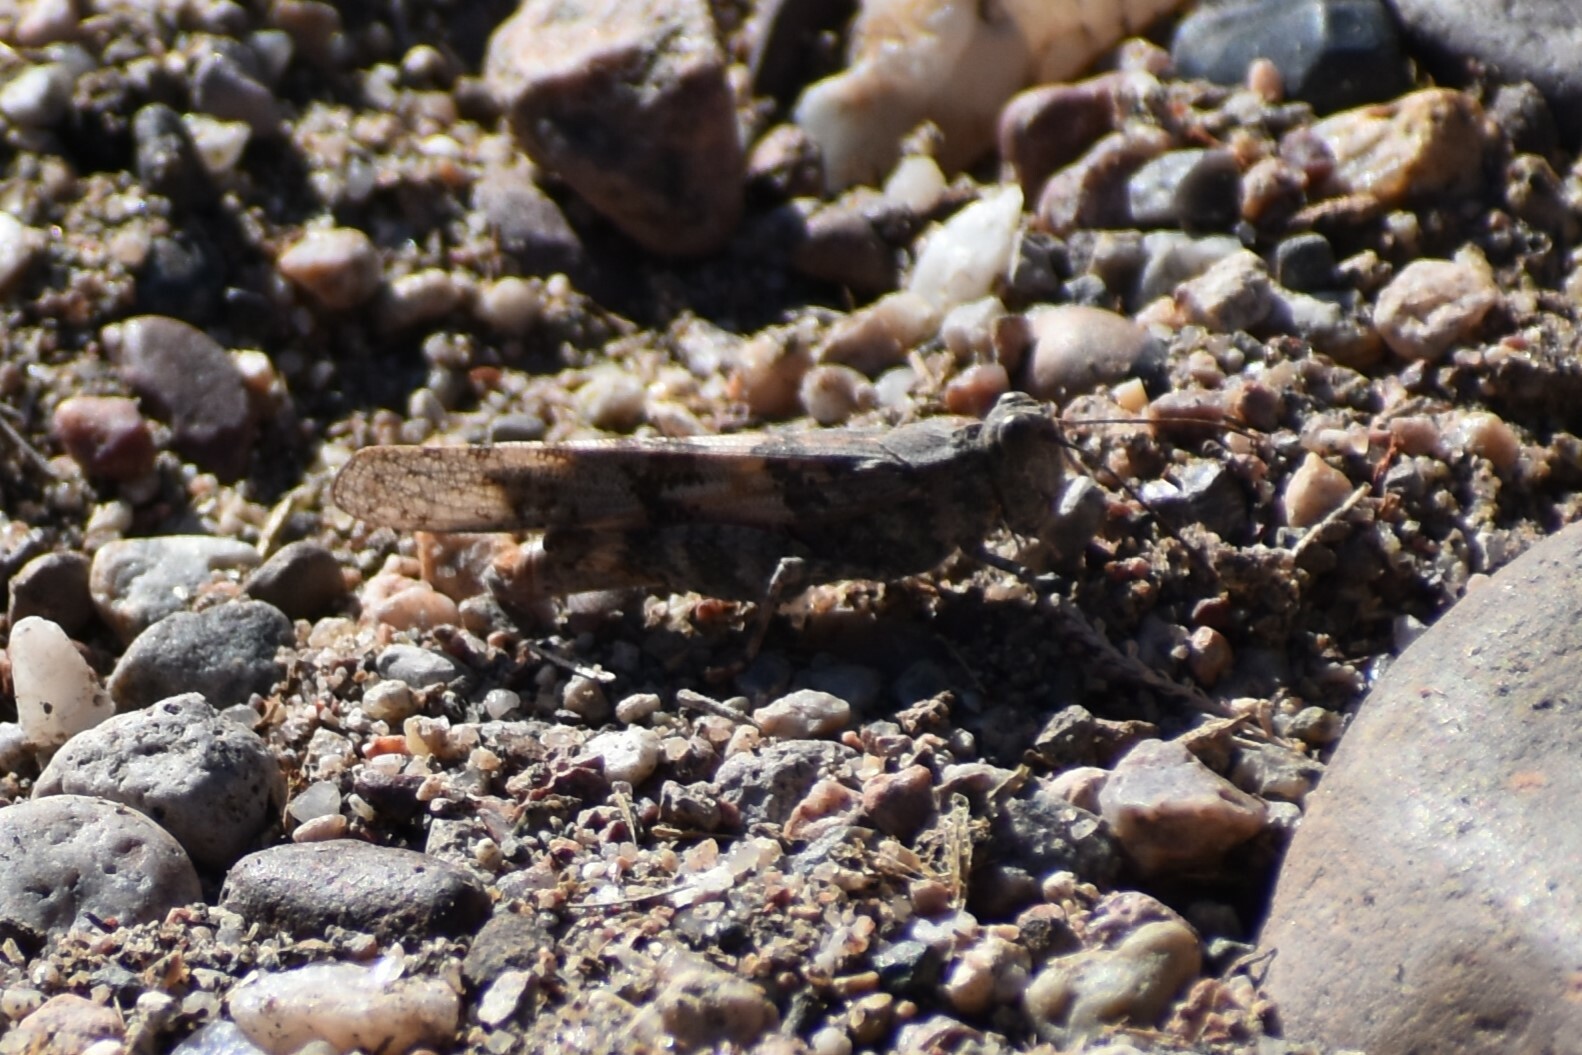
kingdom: Animalia
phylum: Arthropoda
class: Insecta
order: Orthoptera
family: Acrididae
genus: Trimerotropis
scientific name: Trimerotropis pallidipennis
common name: Pallid-winged grasshopper
